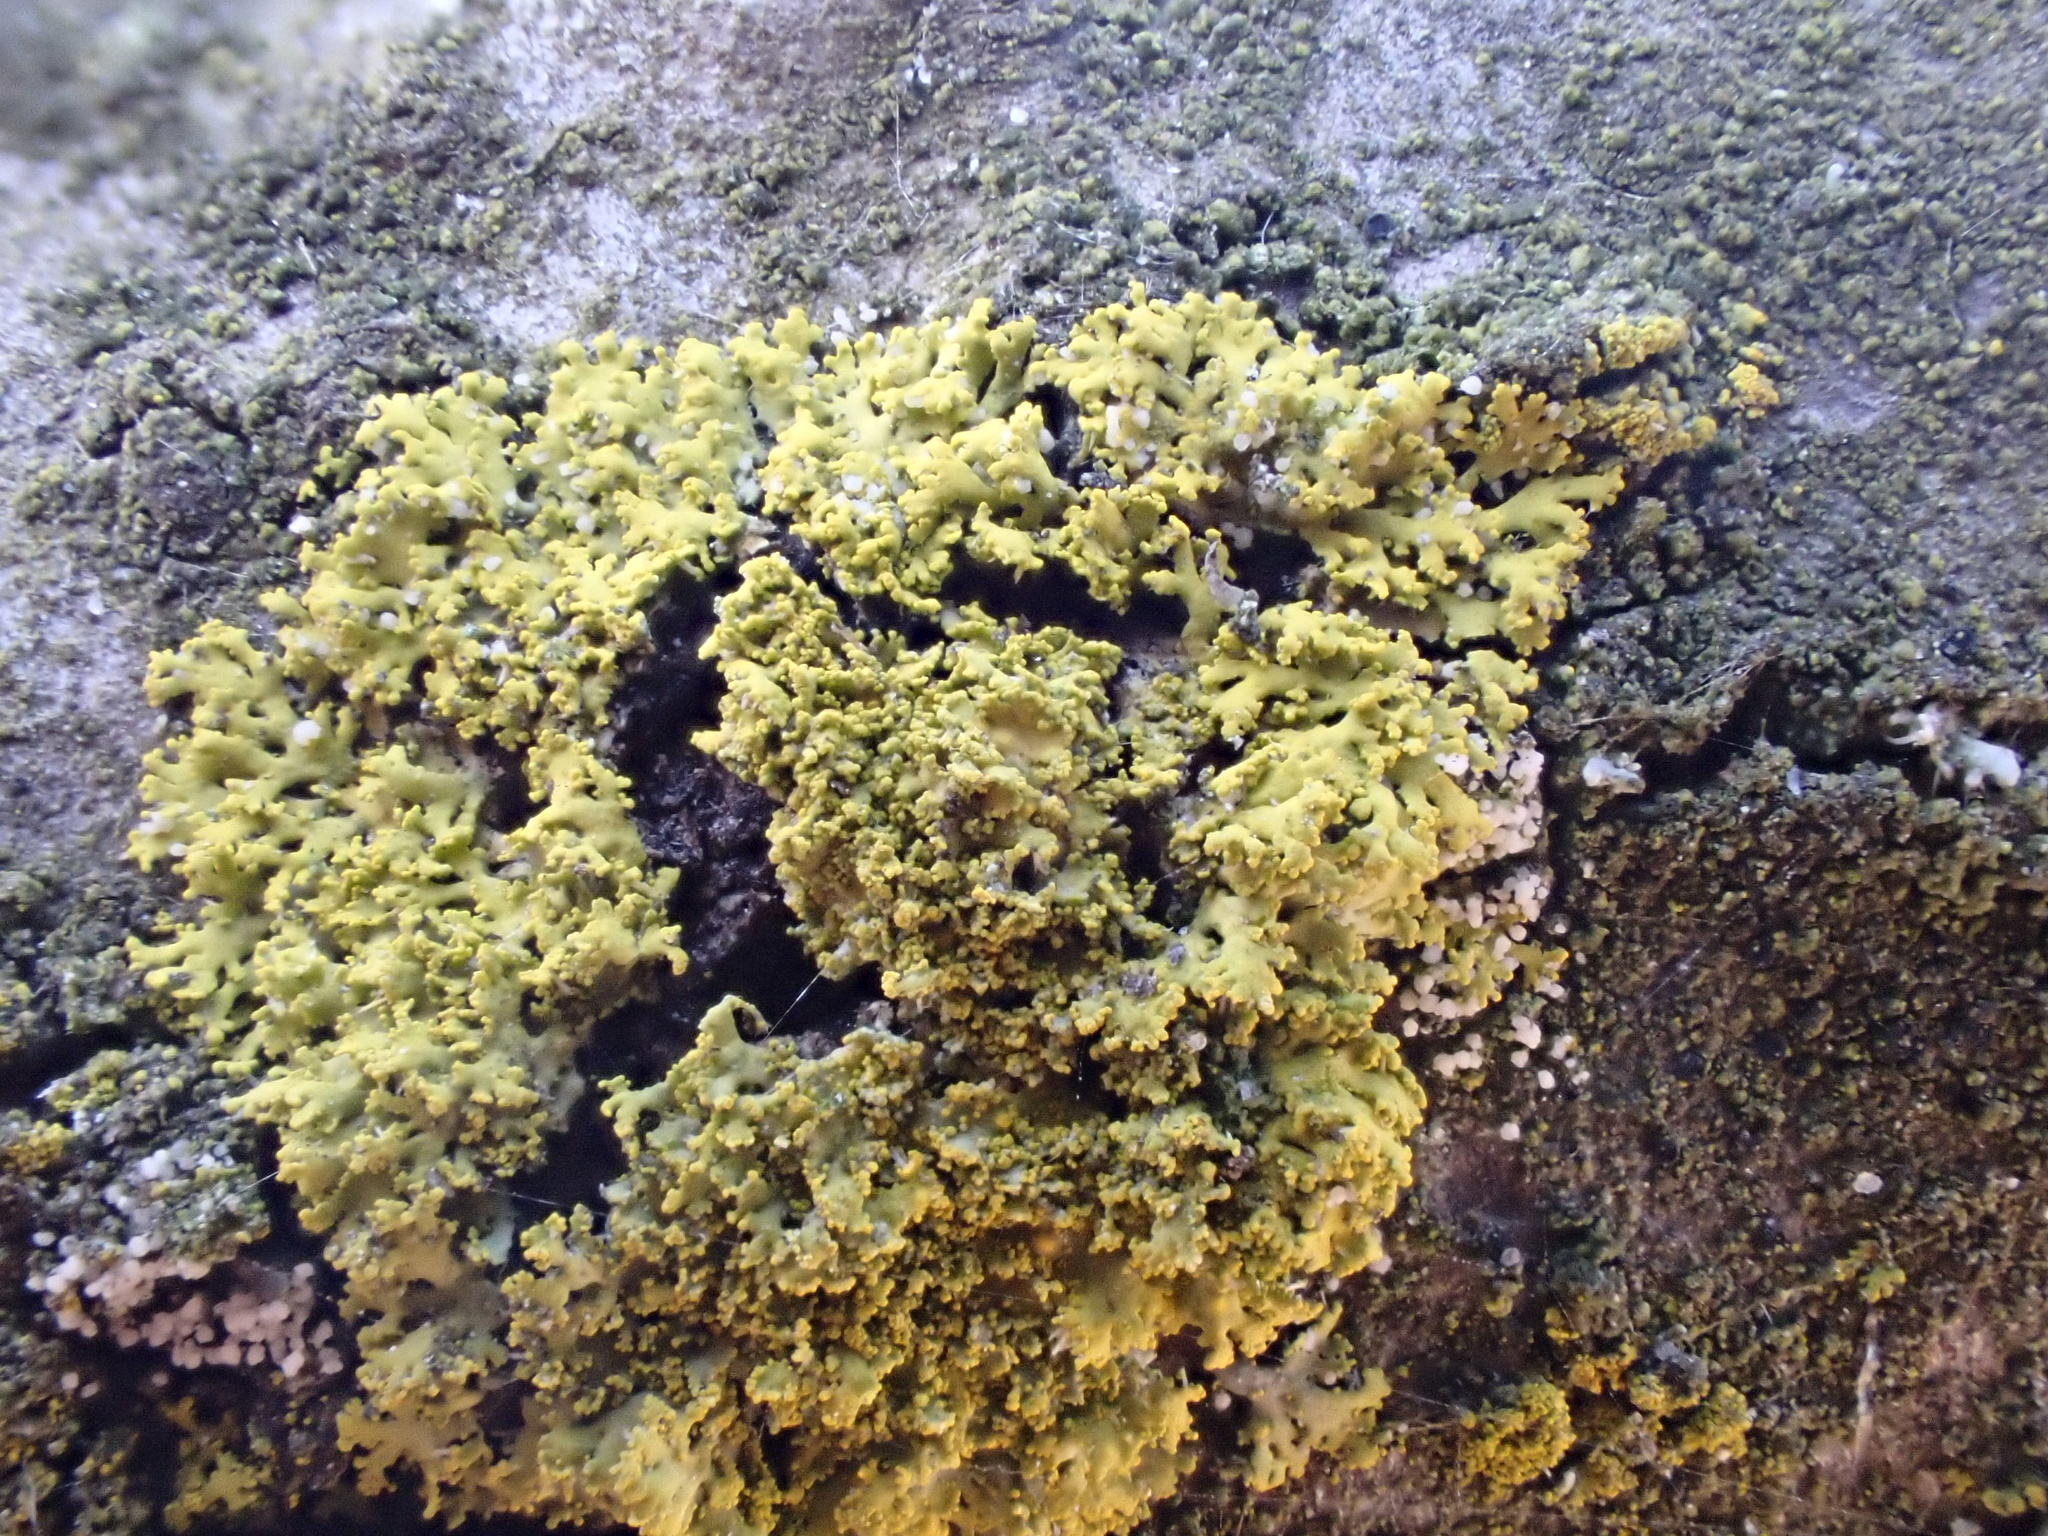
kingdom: Fungi
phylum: Ascomycota
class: Candelariomycetes
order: Candelariales
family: Candelariaceae
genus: Candelaria
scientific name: Candelaria concolor
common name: Candleflame lichen
